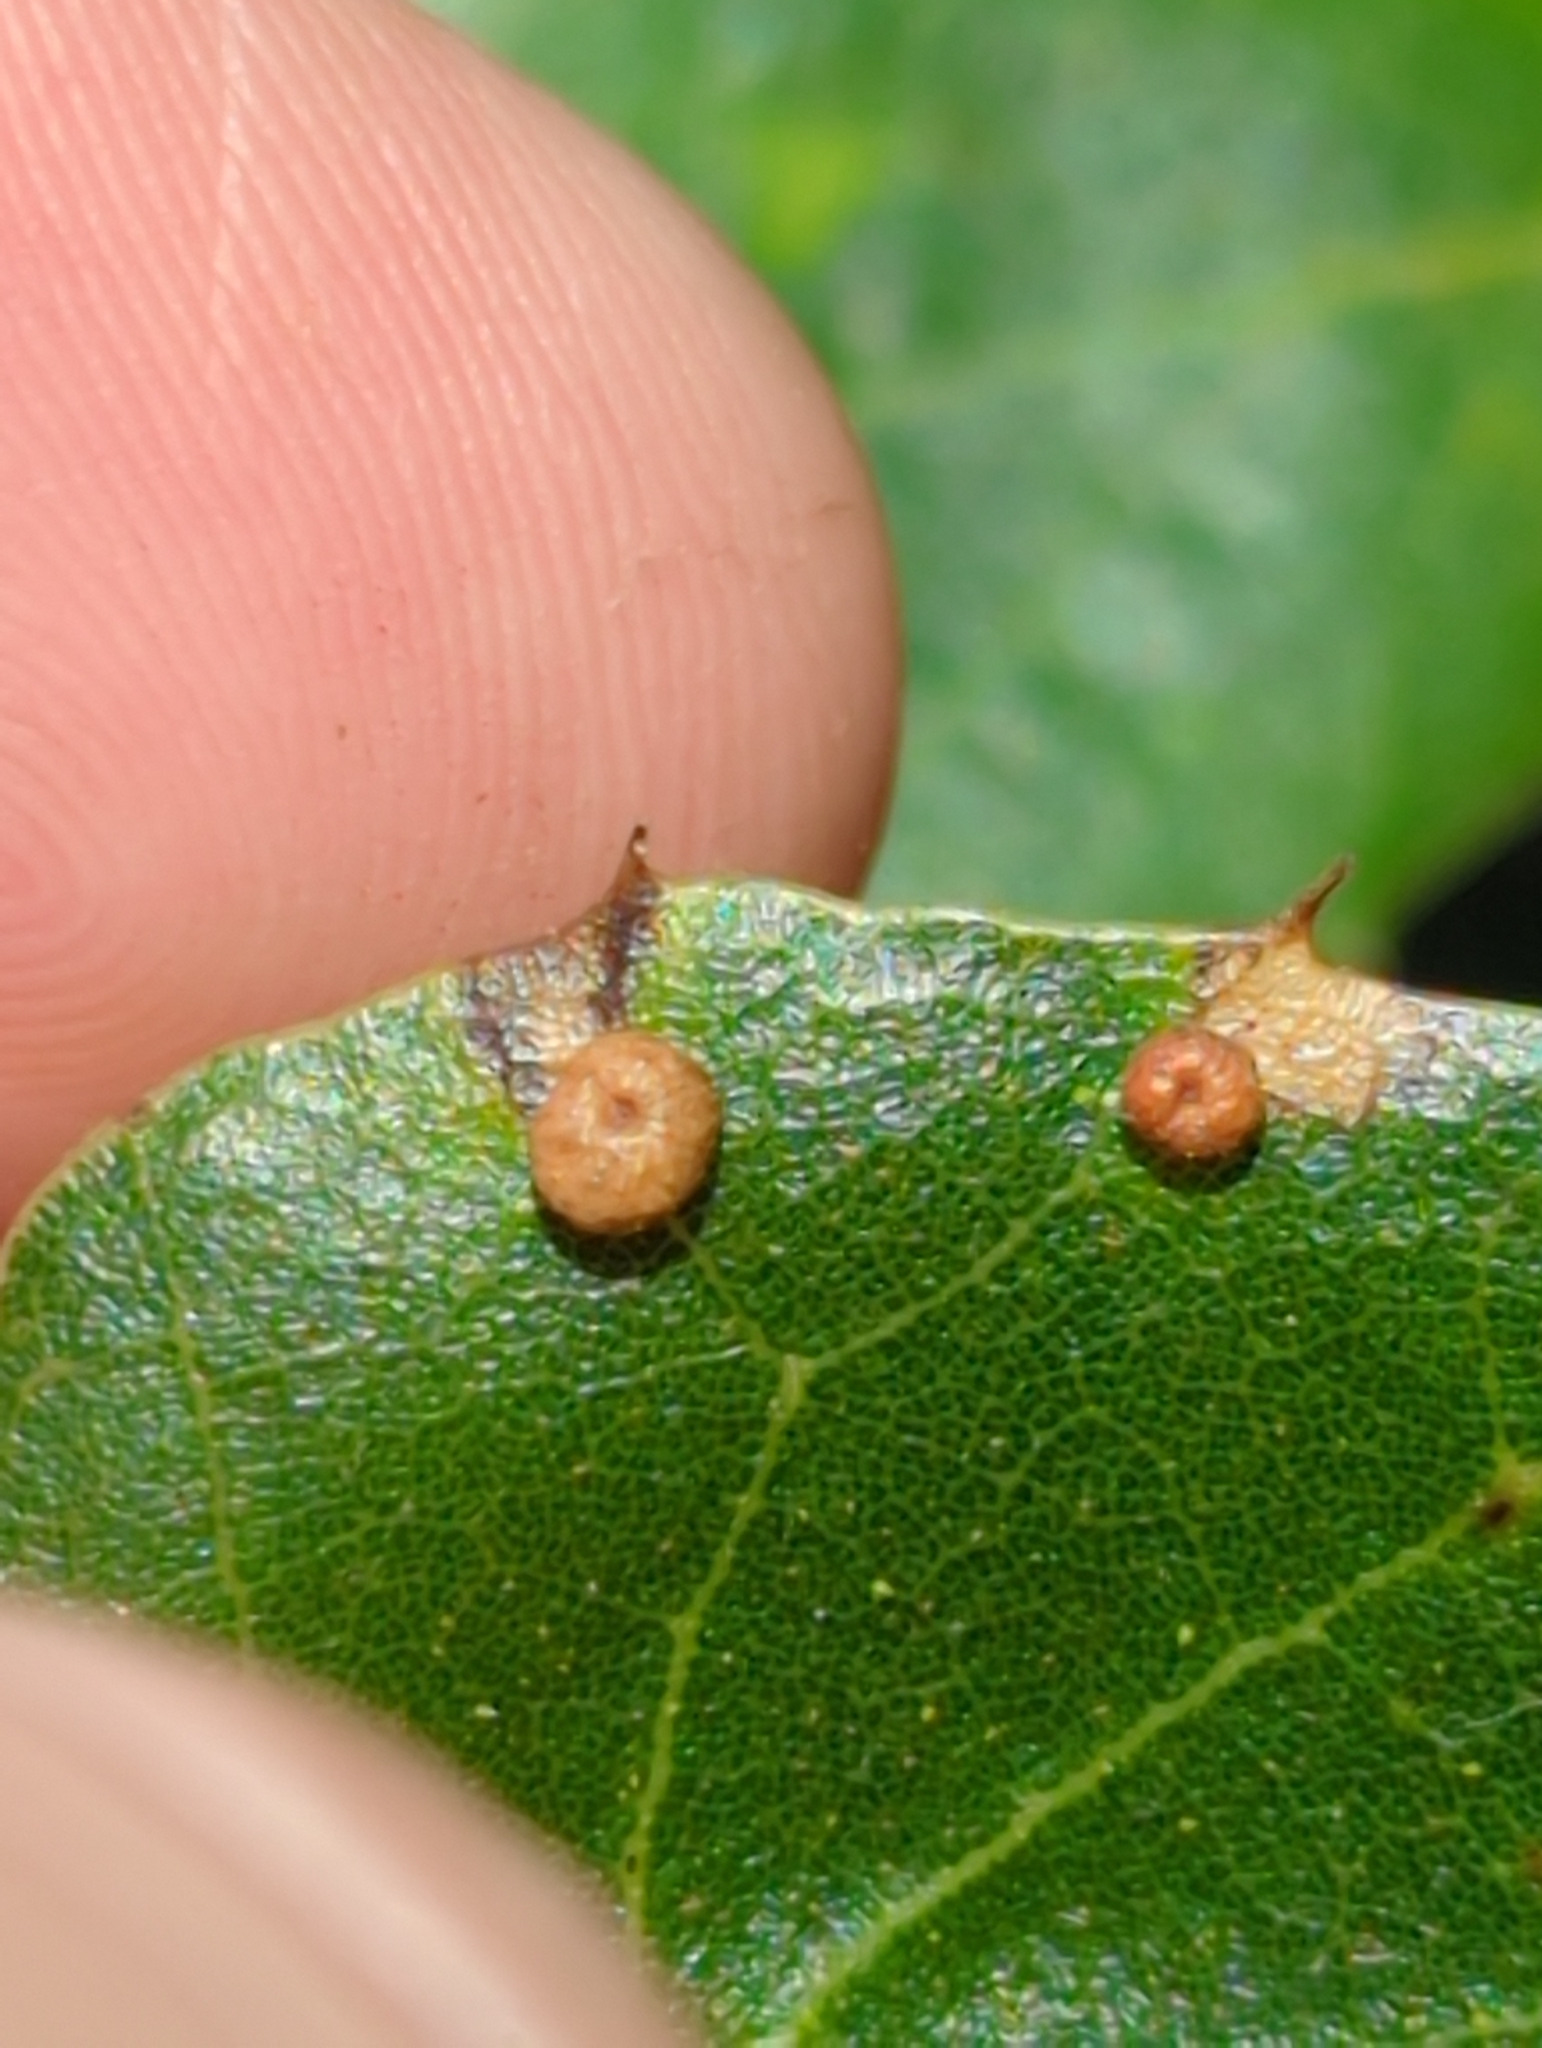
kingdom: Animalia
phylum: Arthropoda
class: Insecta
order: Hymenoptera
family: Cynipidae
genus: Dryocosmus
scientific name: Dryocosmus
